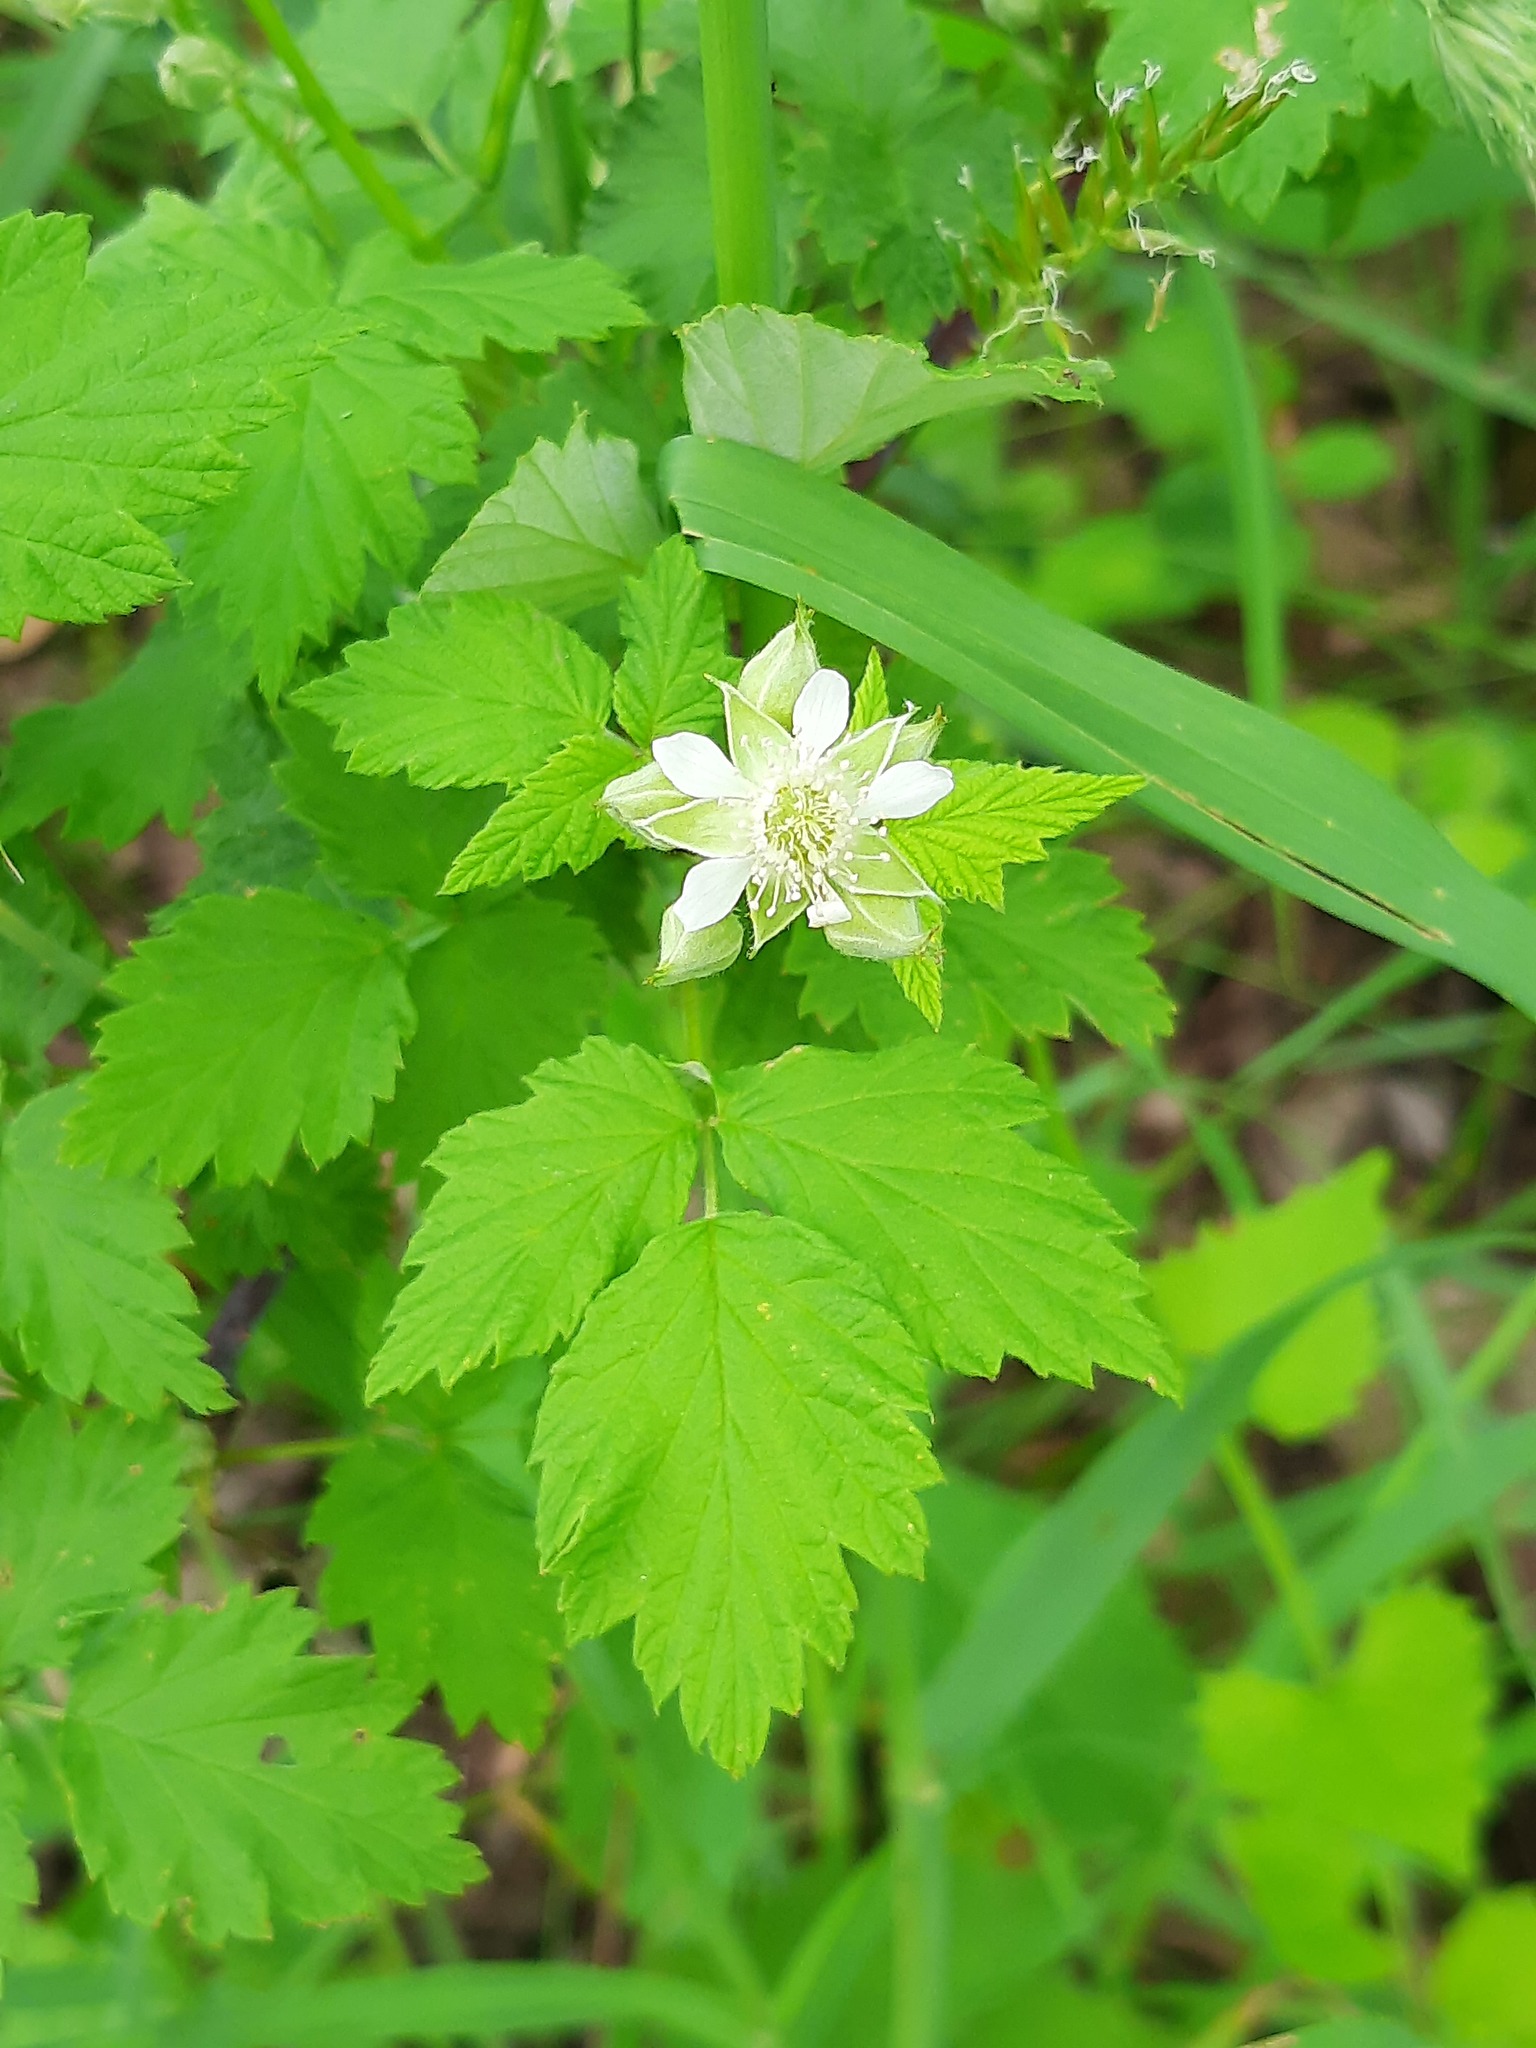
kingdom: Plantae
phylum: Tracheophyta
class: Magnoliopsida
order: Rosales
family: Rosaceae
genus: Rubus
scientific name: Rubus occidentalis
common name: Black raspberry
